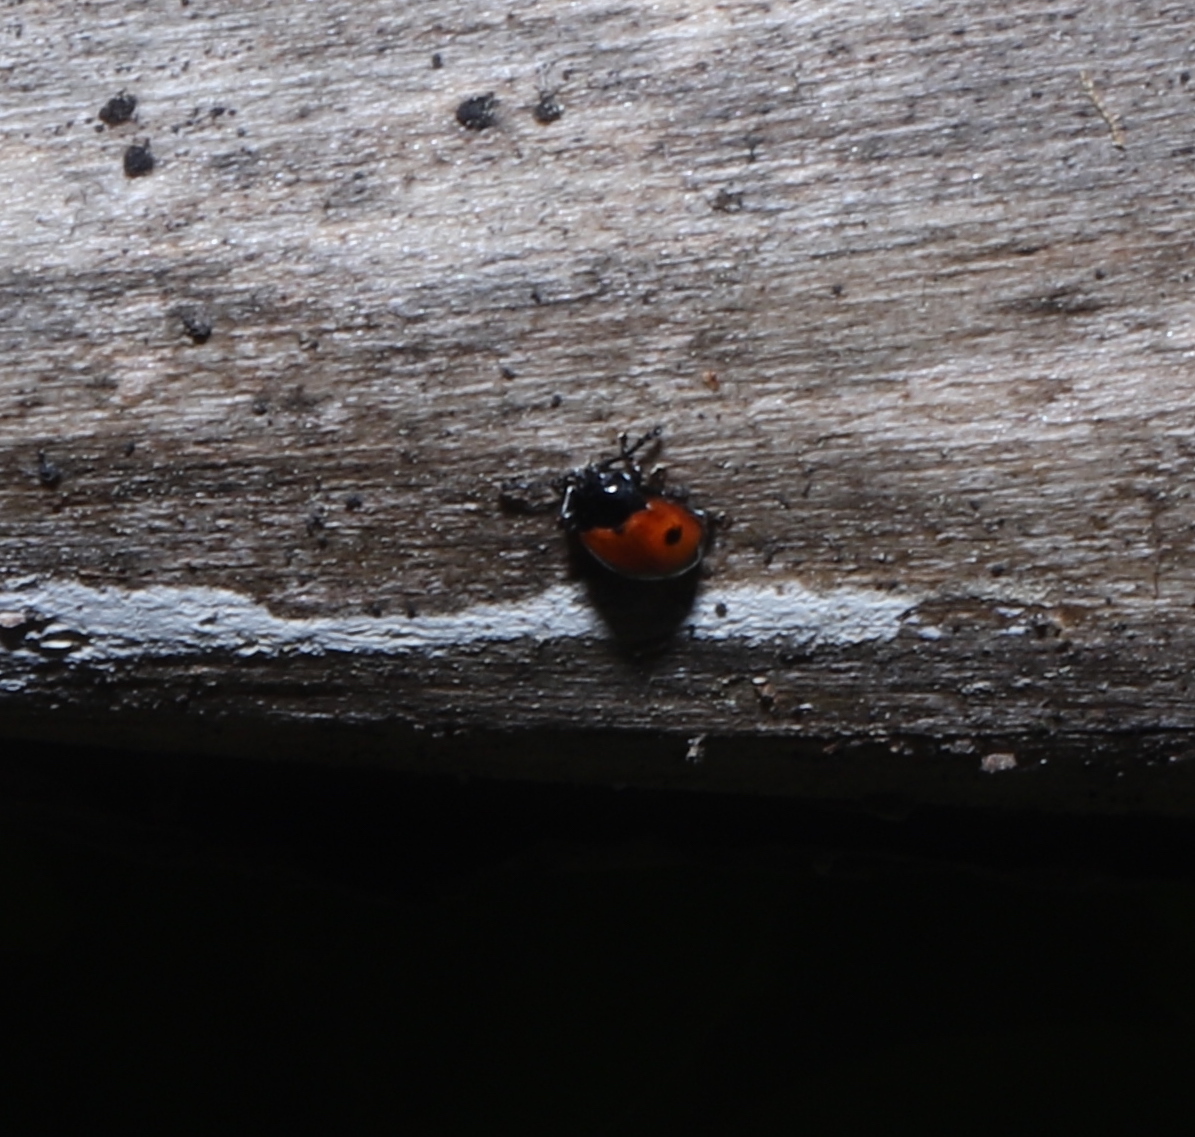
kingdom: Animalia
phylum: Arthropoda
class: Insecta
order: Coleoptera
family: Endomychidae
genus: Endomychus
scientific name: Endomychus biguttatus
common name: Handsome fungus beetle
